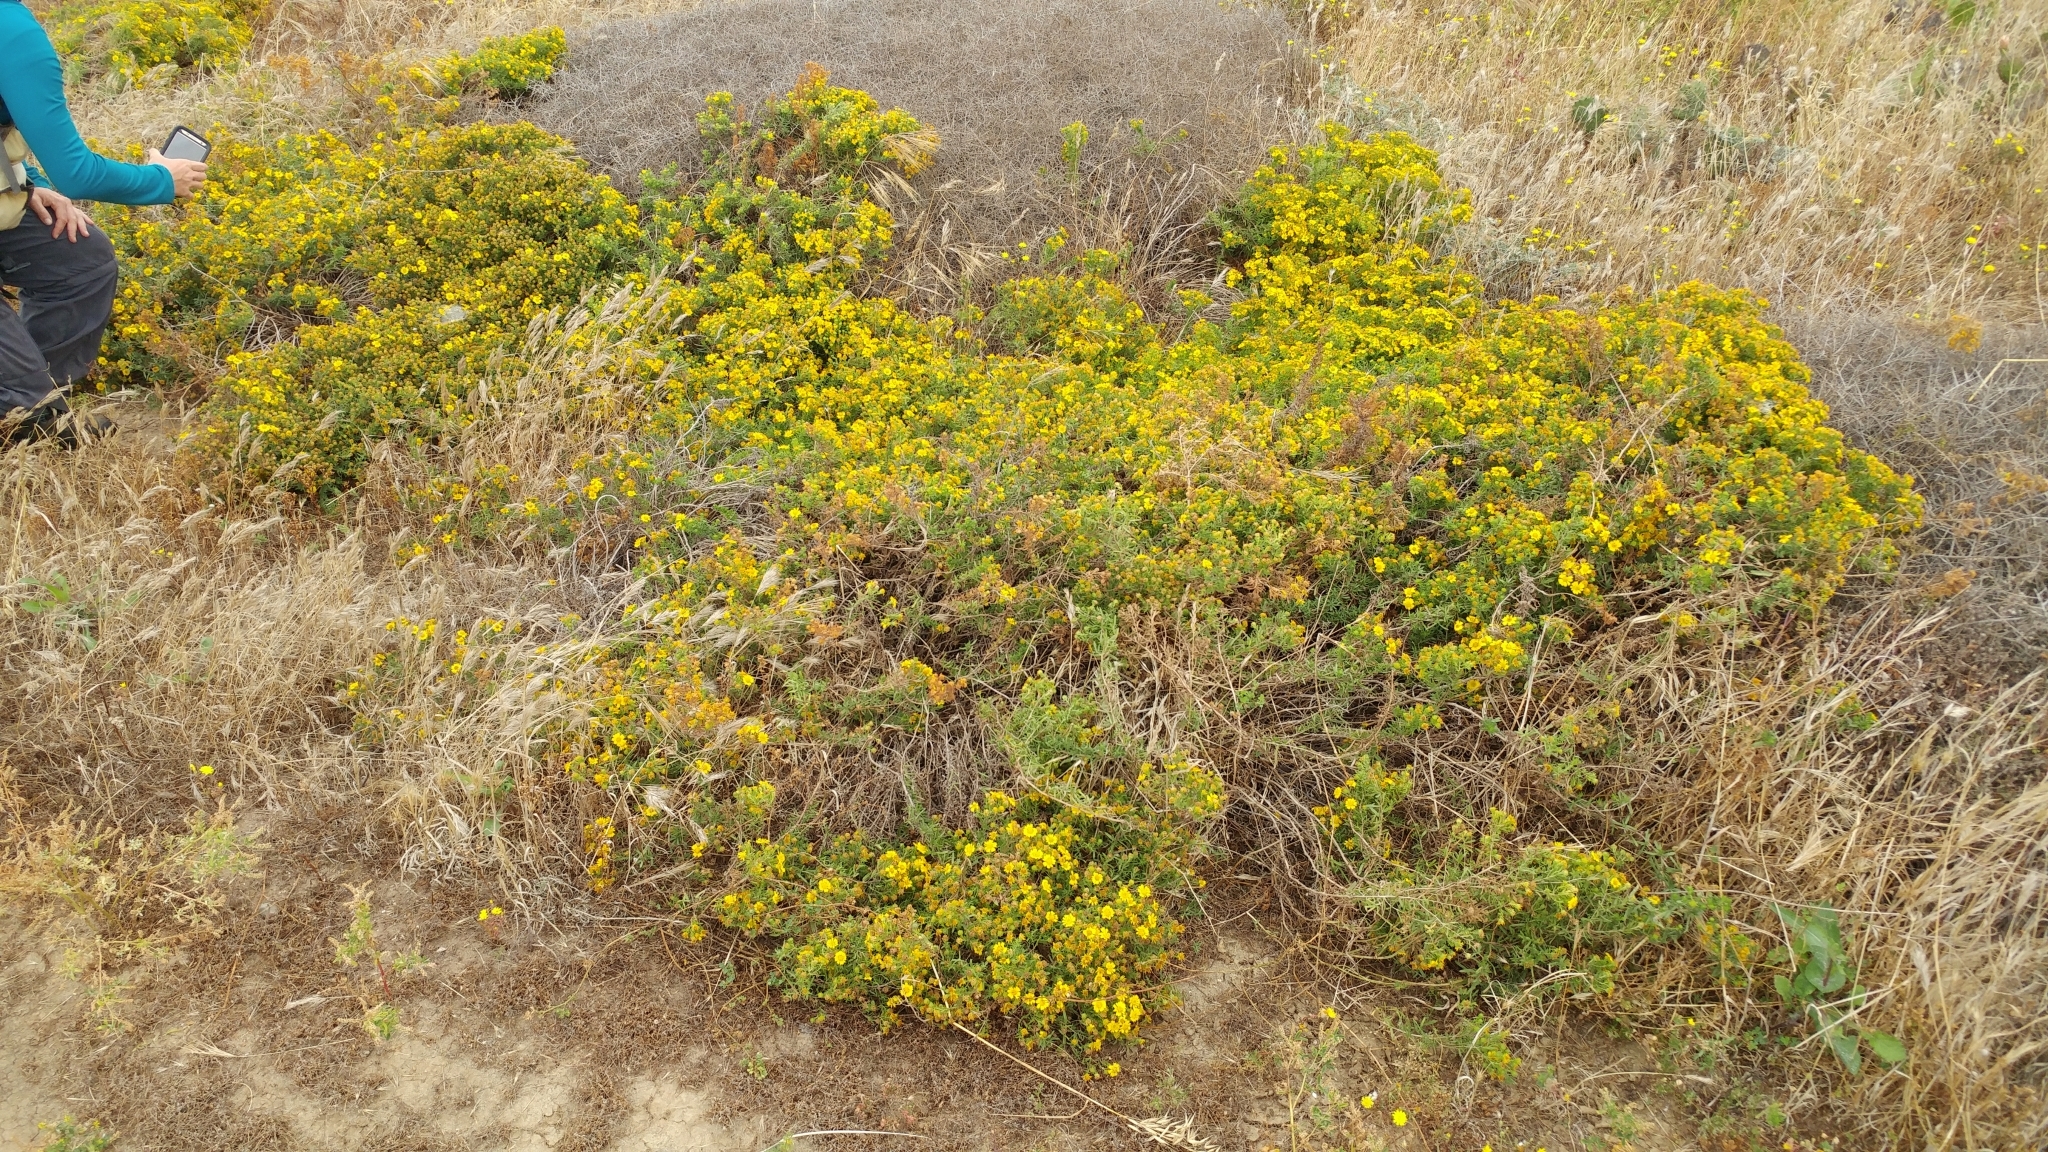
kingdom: Plantae
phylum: Tracheophyta
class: Magnoliopsida
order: Asterales
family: Asteraceae
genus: Deinandra
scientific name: Deinandra clementina
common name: Island tarplant
